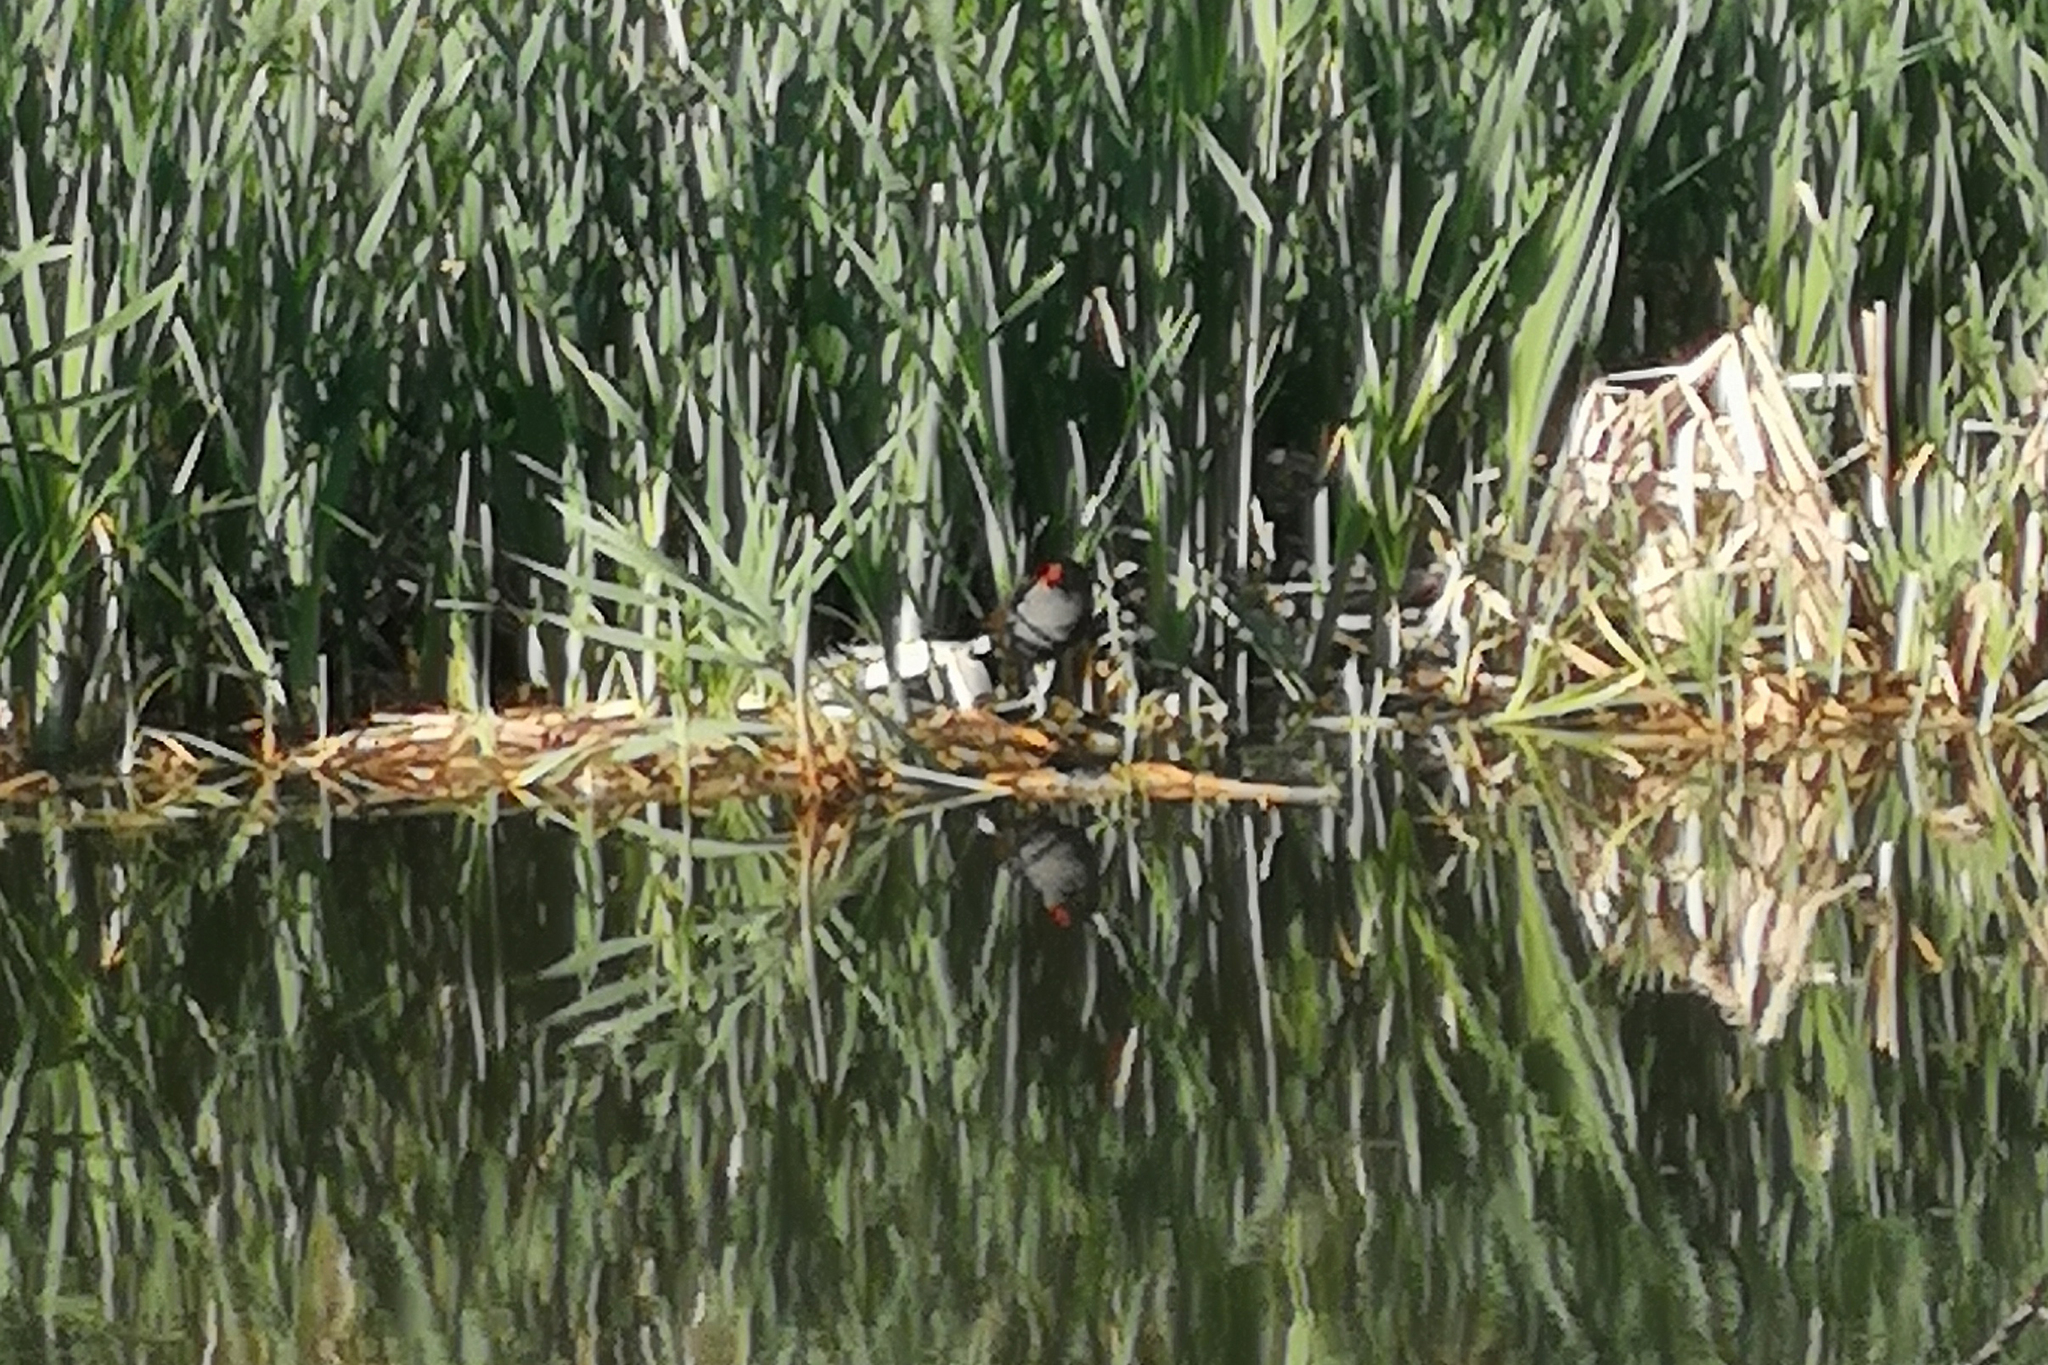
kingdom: Animalia
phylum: Chordata
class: Aves
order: Gruiformes
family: Rallidae
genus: Gallinula
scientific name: Gallinula chloropus
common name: Common moorhen
